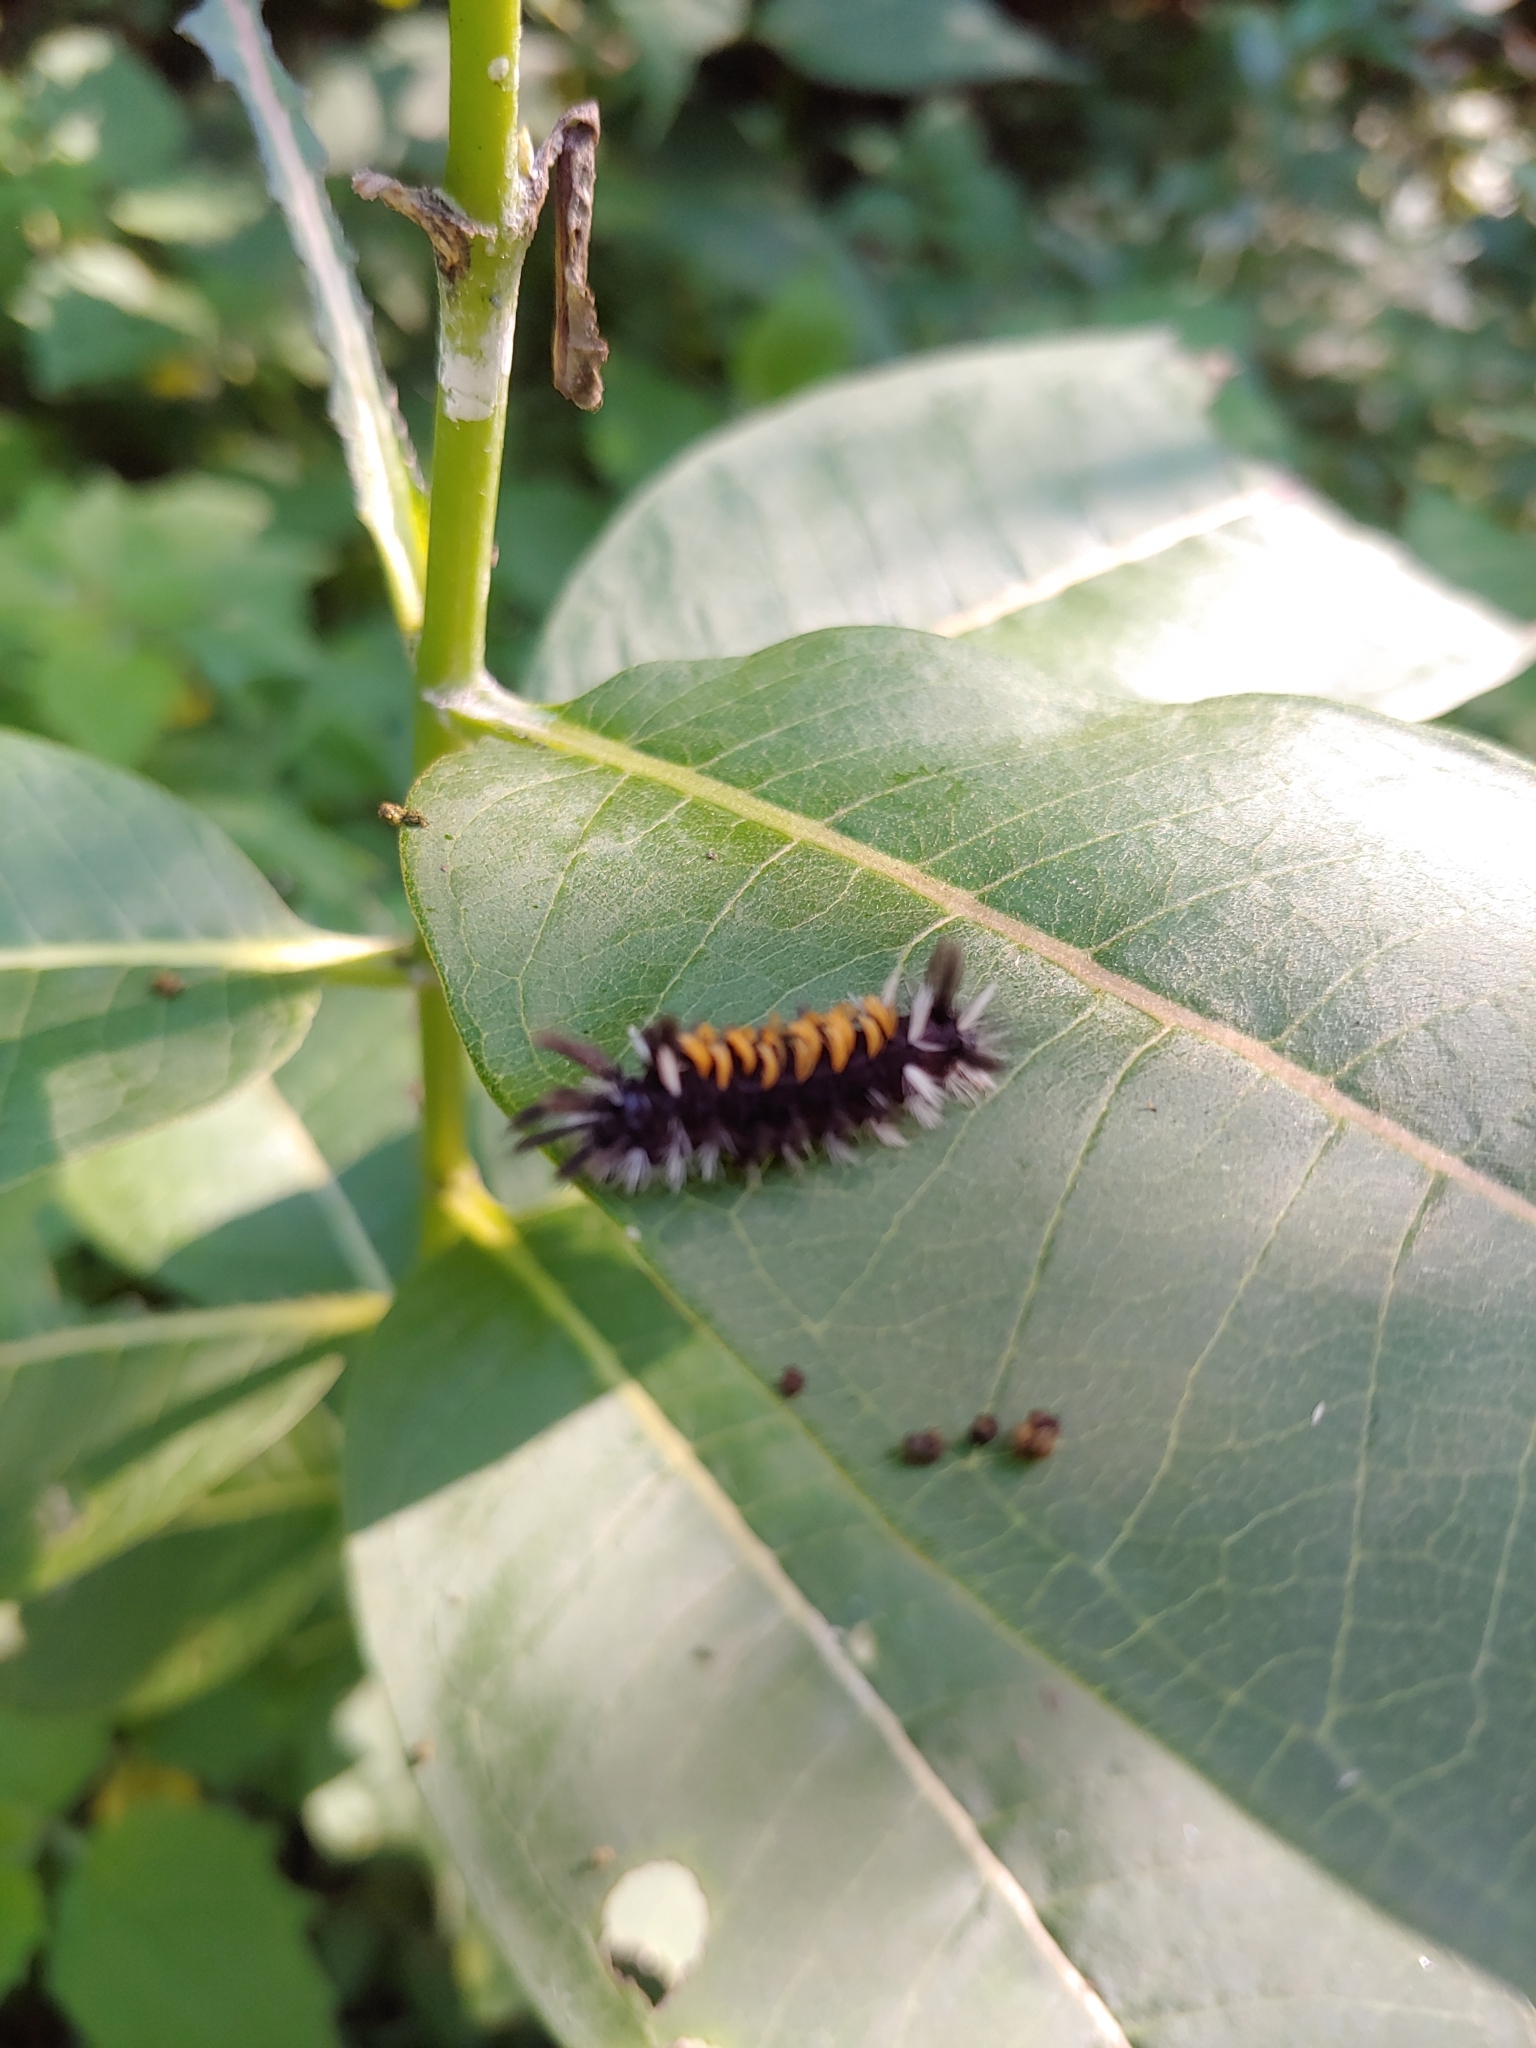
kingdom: Animalia
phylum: Arthropoda
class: Insecta
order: Lepidoptera
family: Erebidae
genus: Euchaetes
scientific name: Euchaetes egle
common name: Milkweed tussock moth
